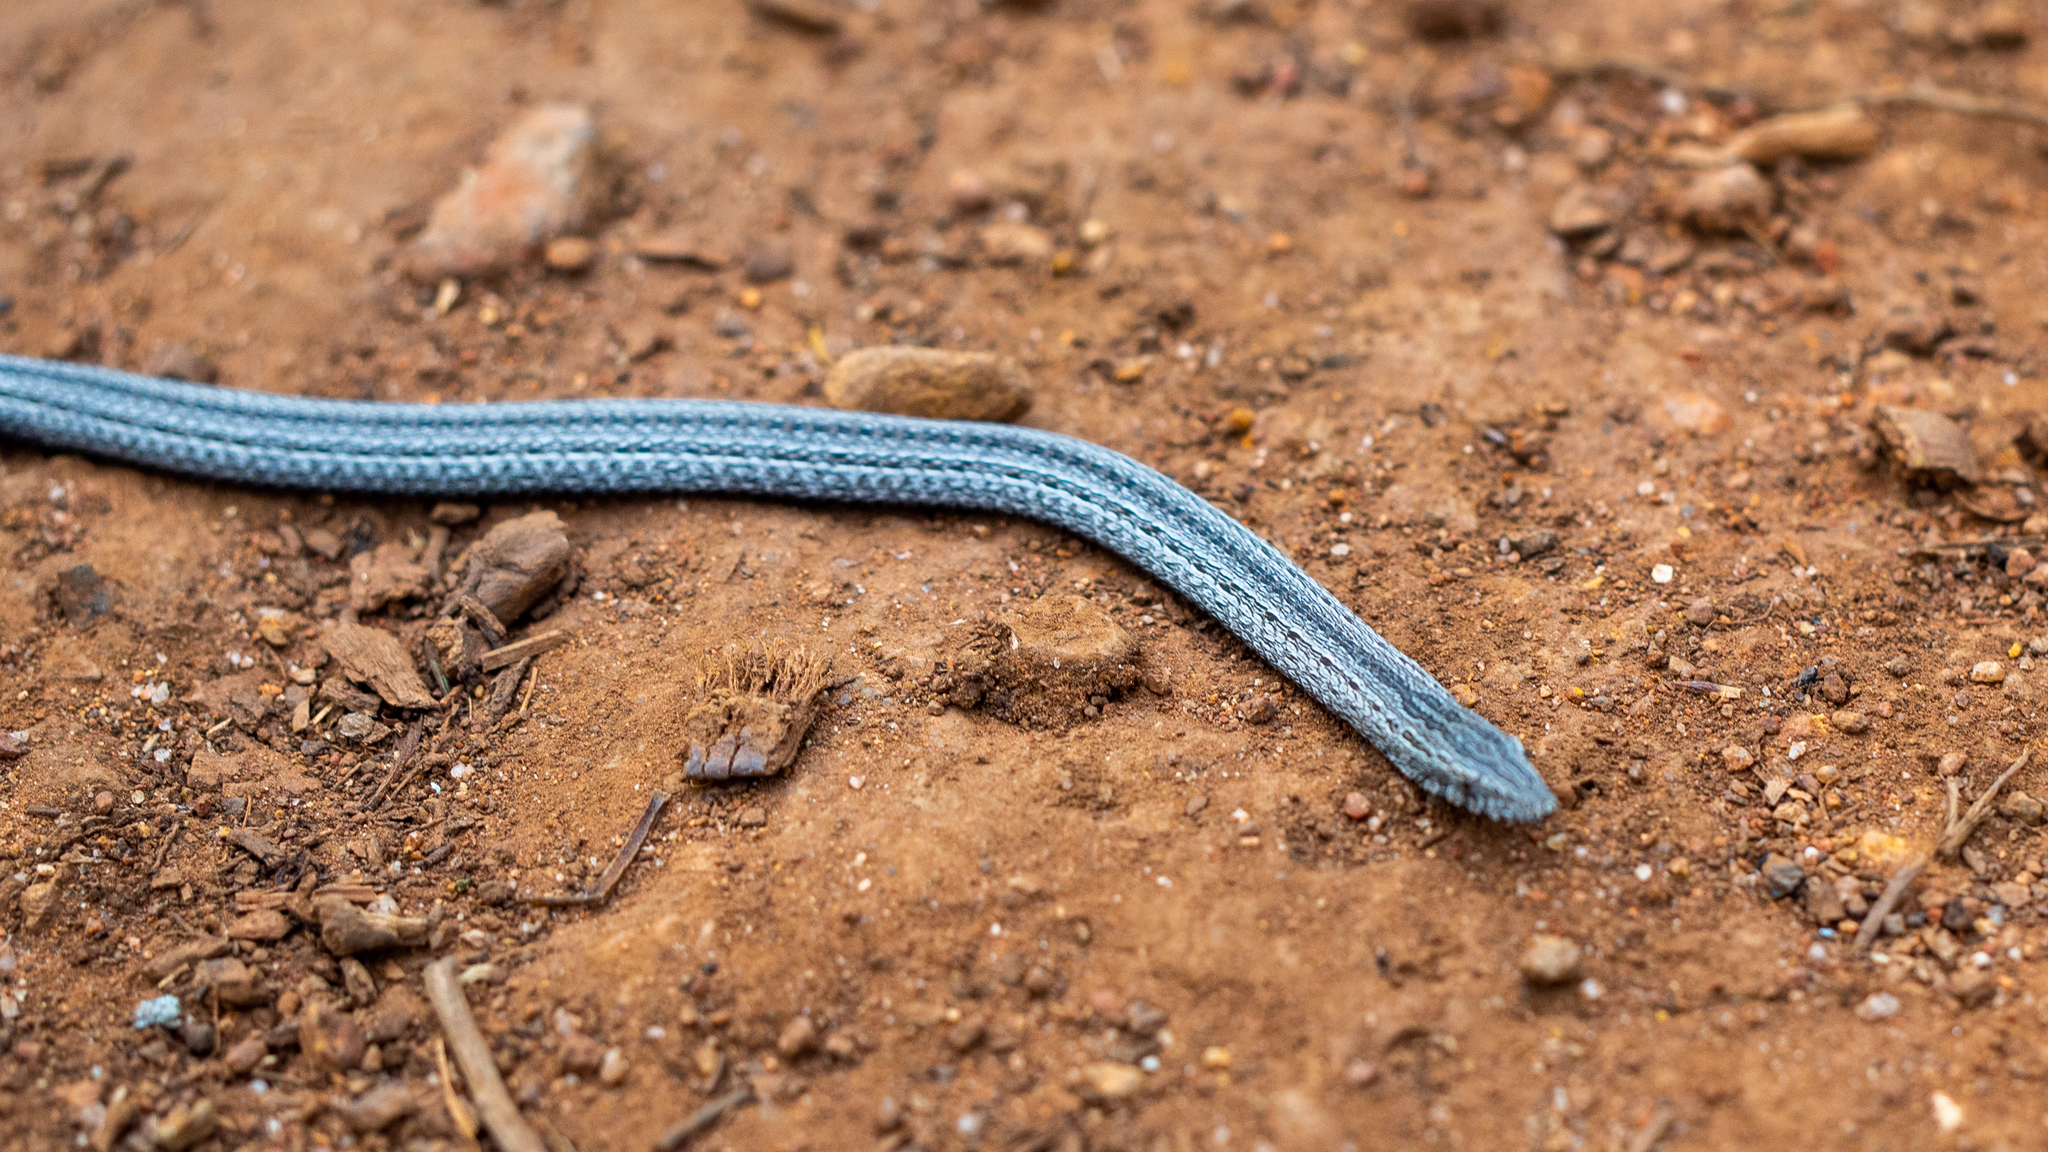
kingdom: Animalia
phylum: Chordata
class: Squamata
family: Pygopodidae
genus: Lialis
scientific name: Lialis burtonis
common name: Burton's legless lizard
